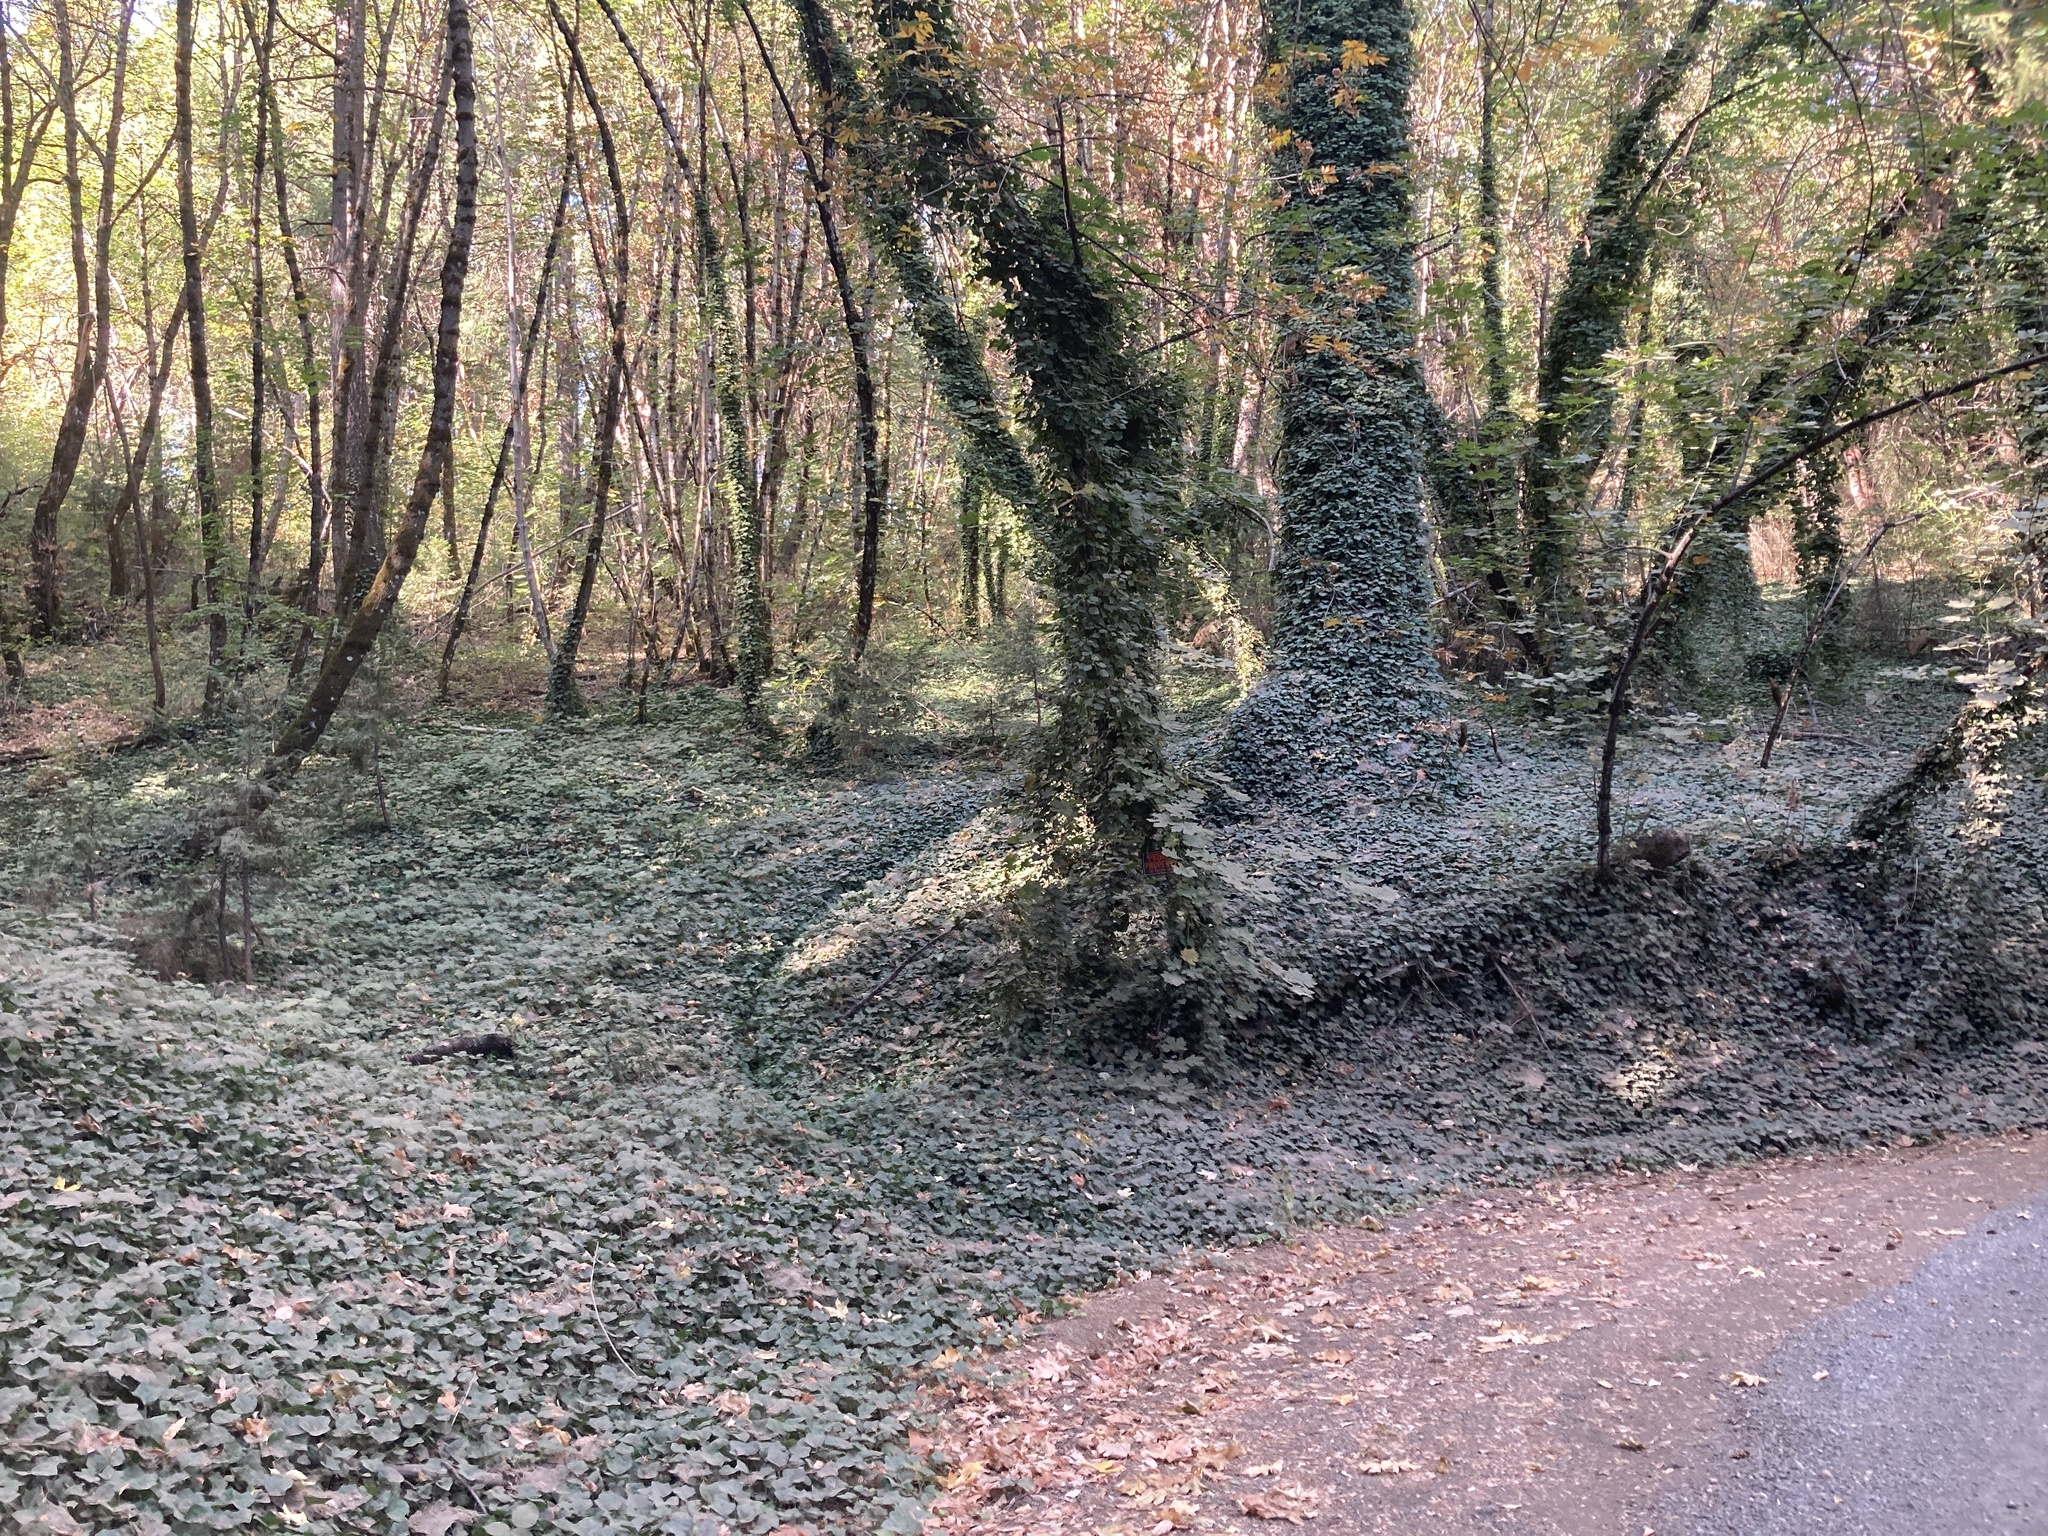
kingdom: Plantae
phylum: Tracheophyta
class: Magnoliopsida
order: Apiales
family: Araliaceae
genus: Hedera
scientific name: Hedera helix
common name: Ivy
